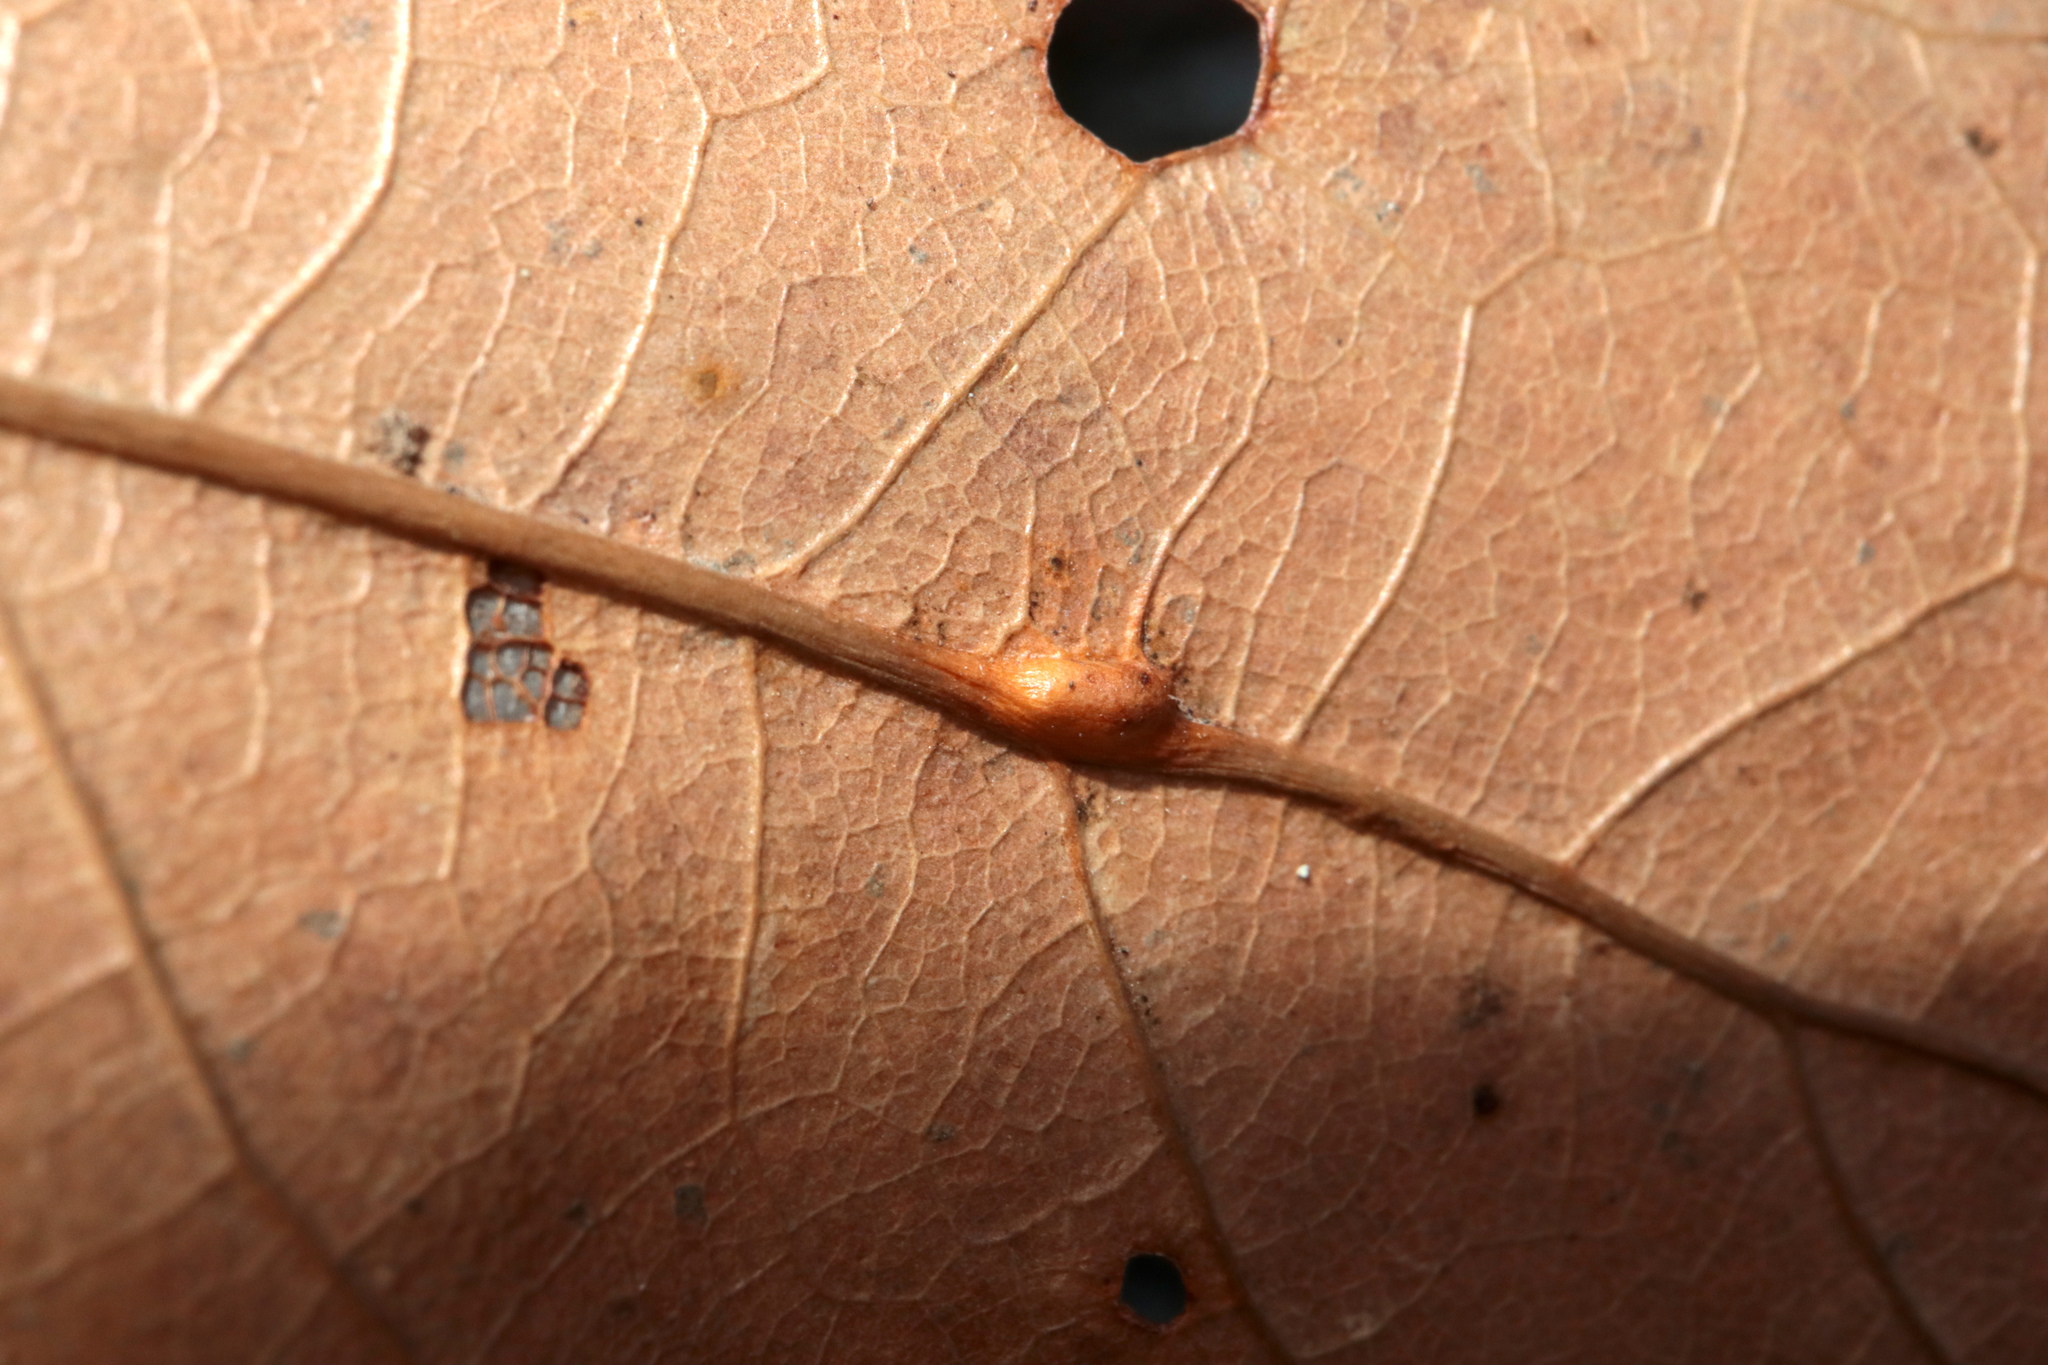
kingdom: Animalia
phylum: Arthropoda
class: Insecta
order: Hymenoptera
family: Cynipidae
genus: Callirhytis
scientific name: Callirhytis
